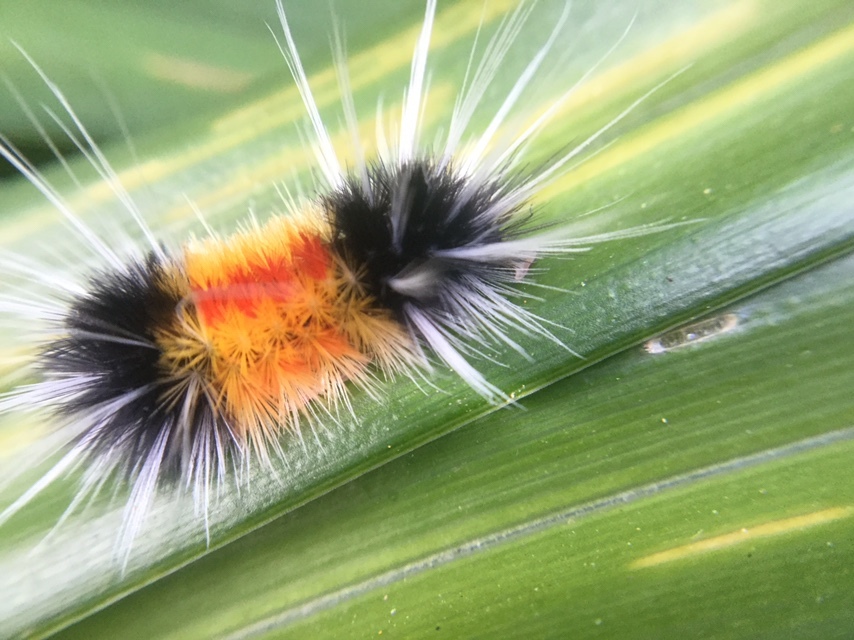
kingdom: Animalia
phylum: Arthropoda
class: Insecta
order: Lepidoptera
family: Erebidae
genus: Lophocampa
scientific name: Lophocampa maculata
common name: Spotted tussock moth
